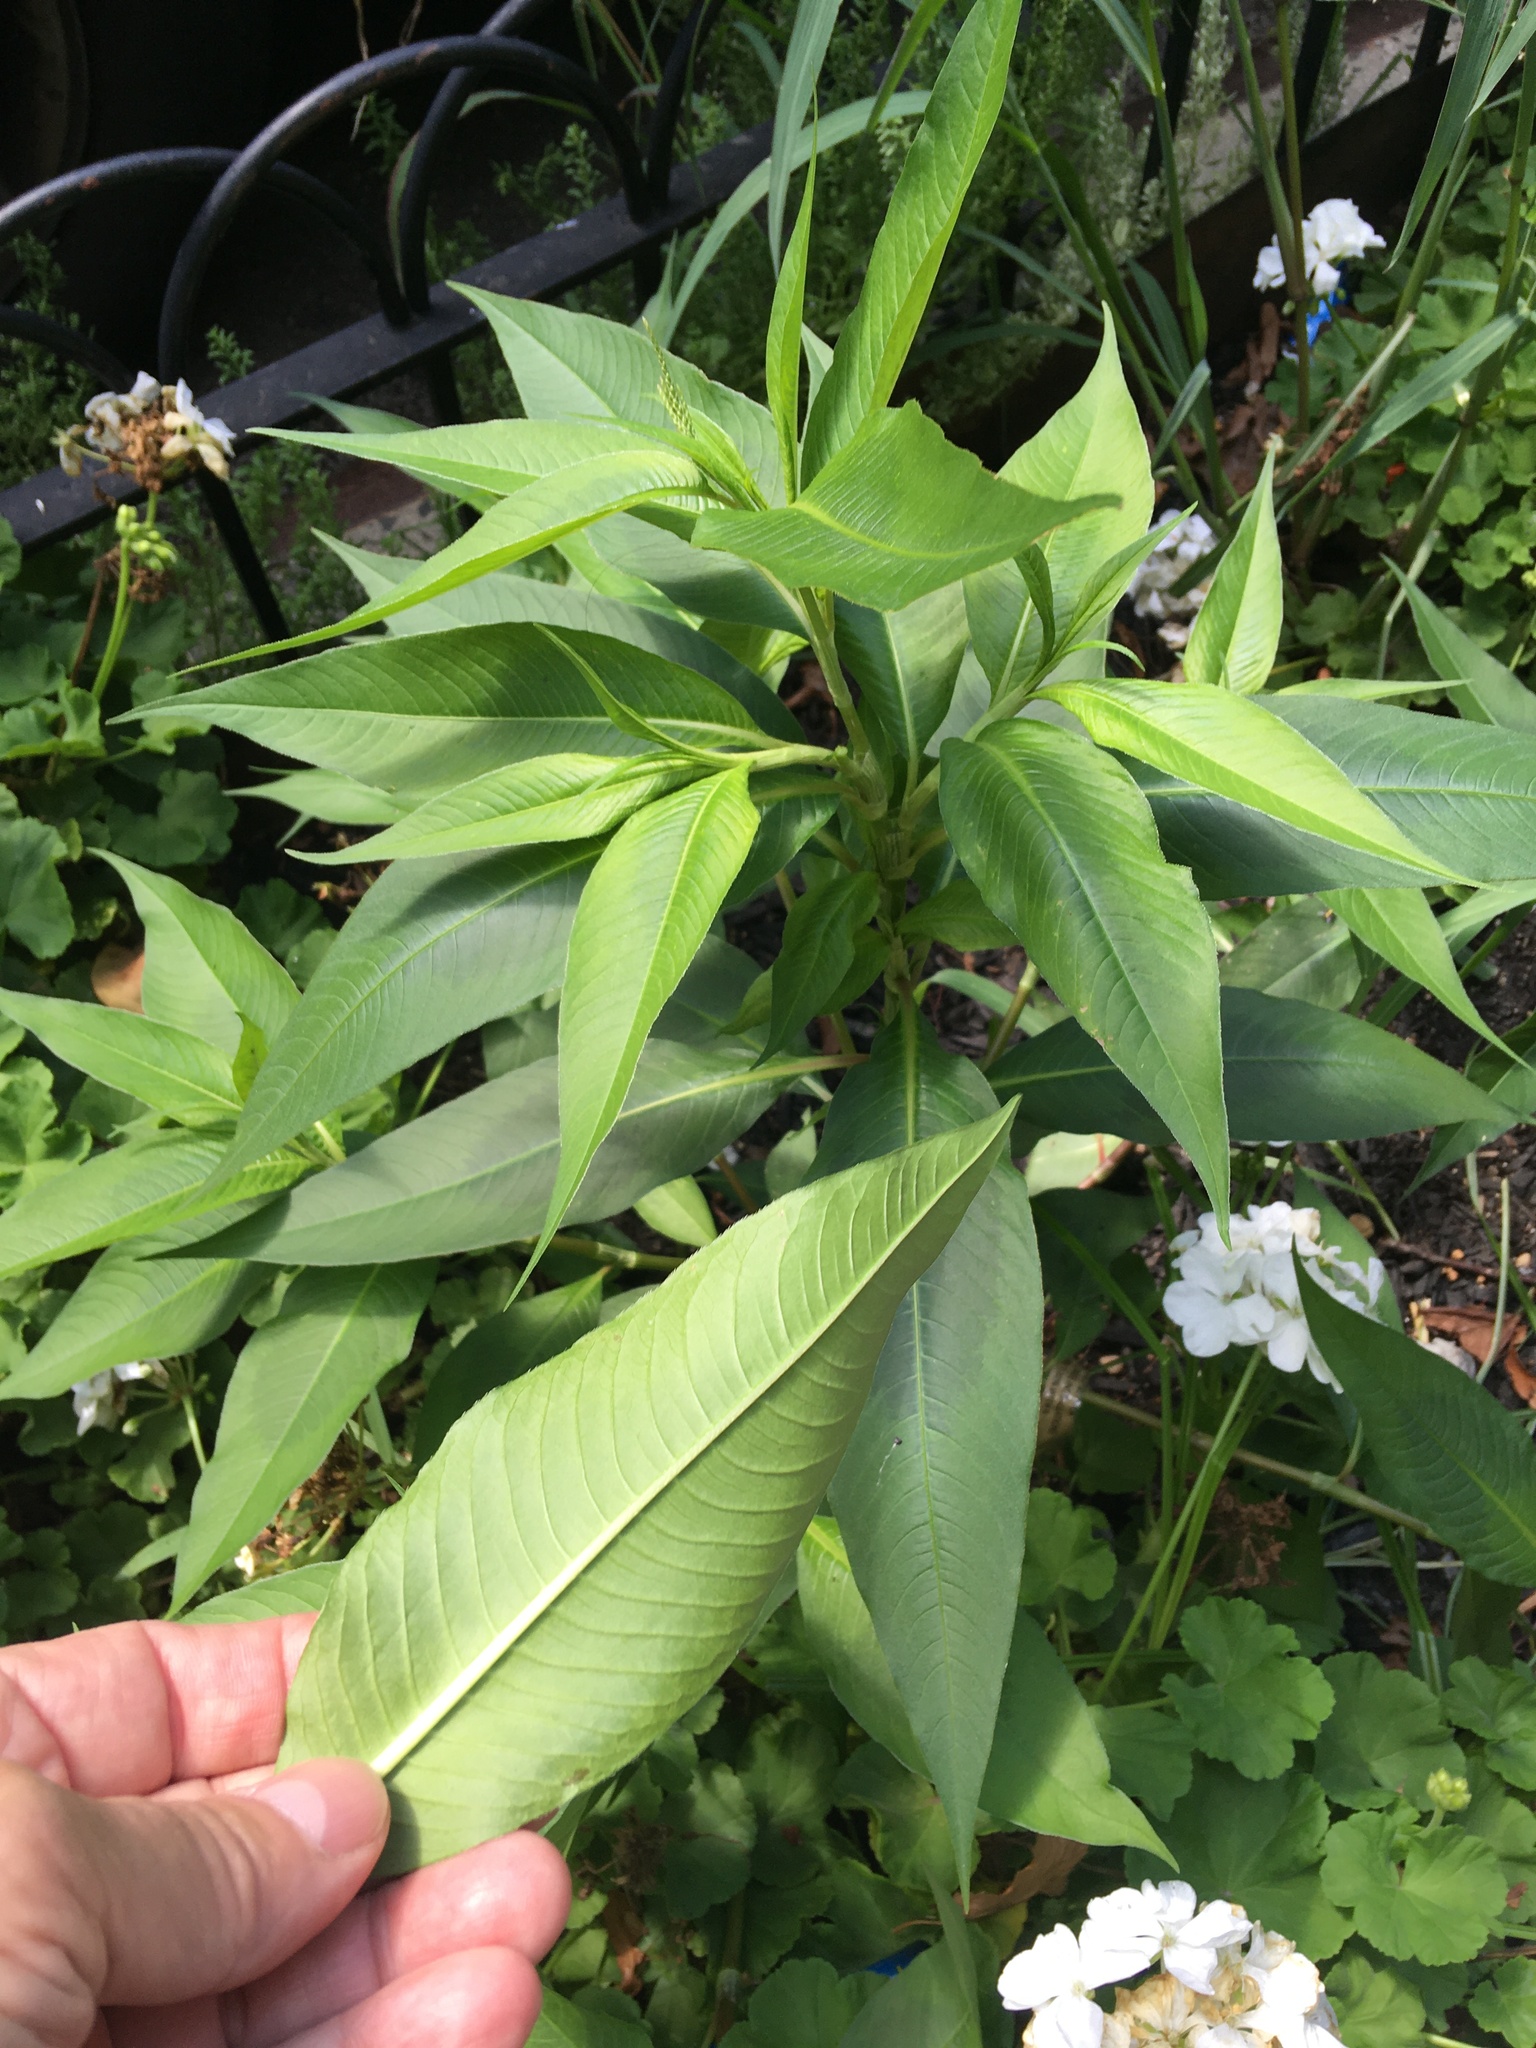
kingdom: Plantae
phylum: Tracheophyta
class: Magnoliopsida
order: Caryophyllales
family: Polygonaceae
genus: Persicaria
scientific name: Persicaria extremiorientalis
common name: Far-eastern smartweed
